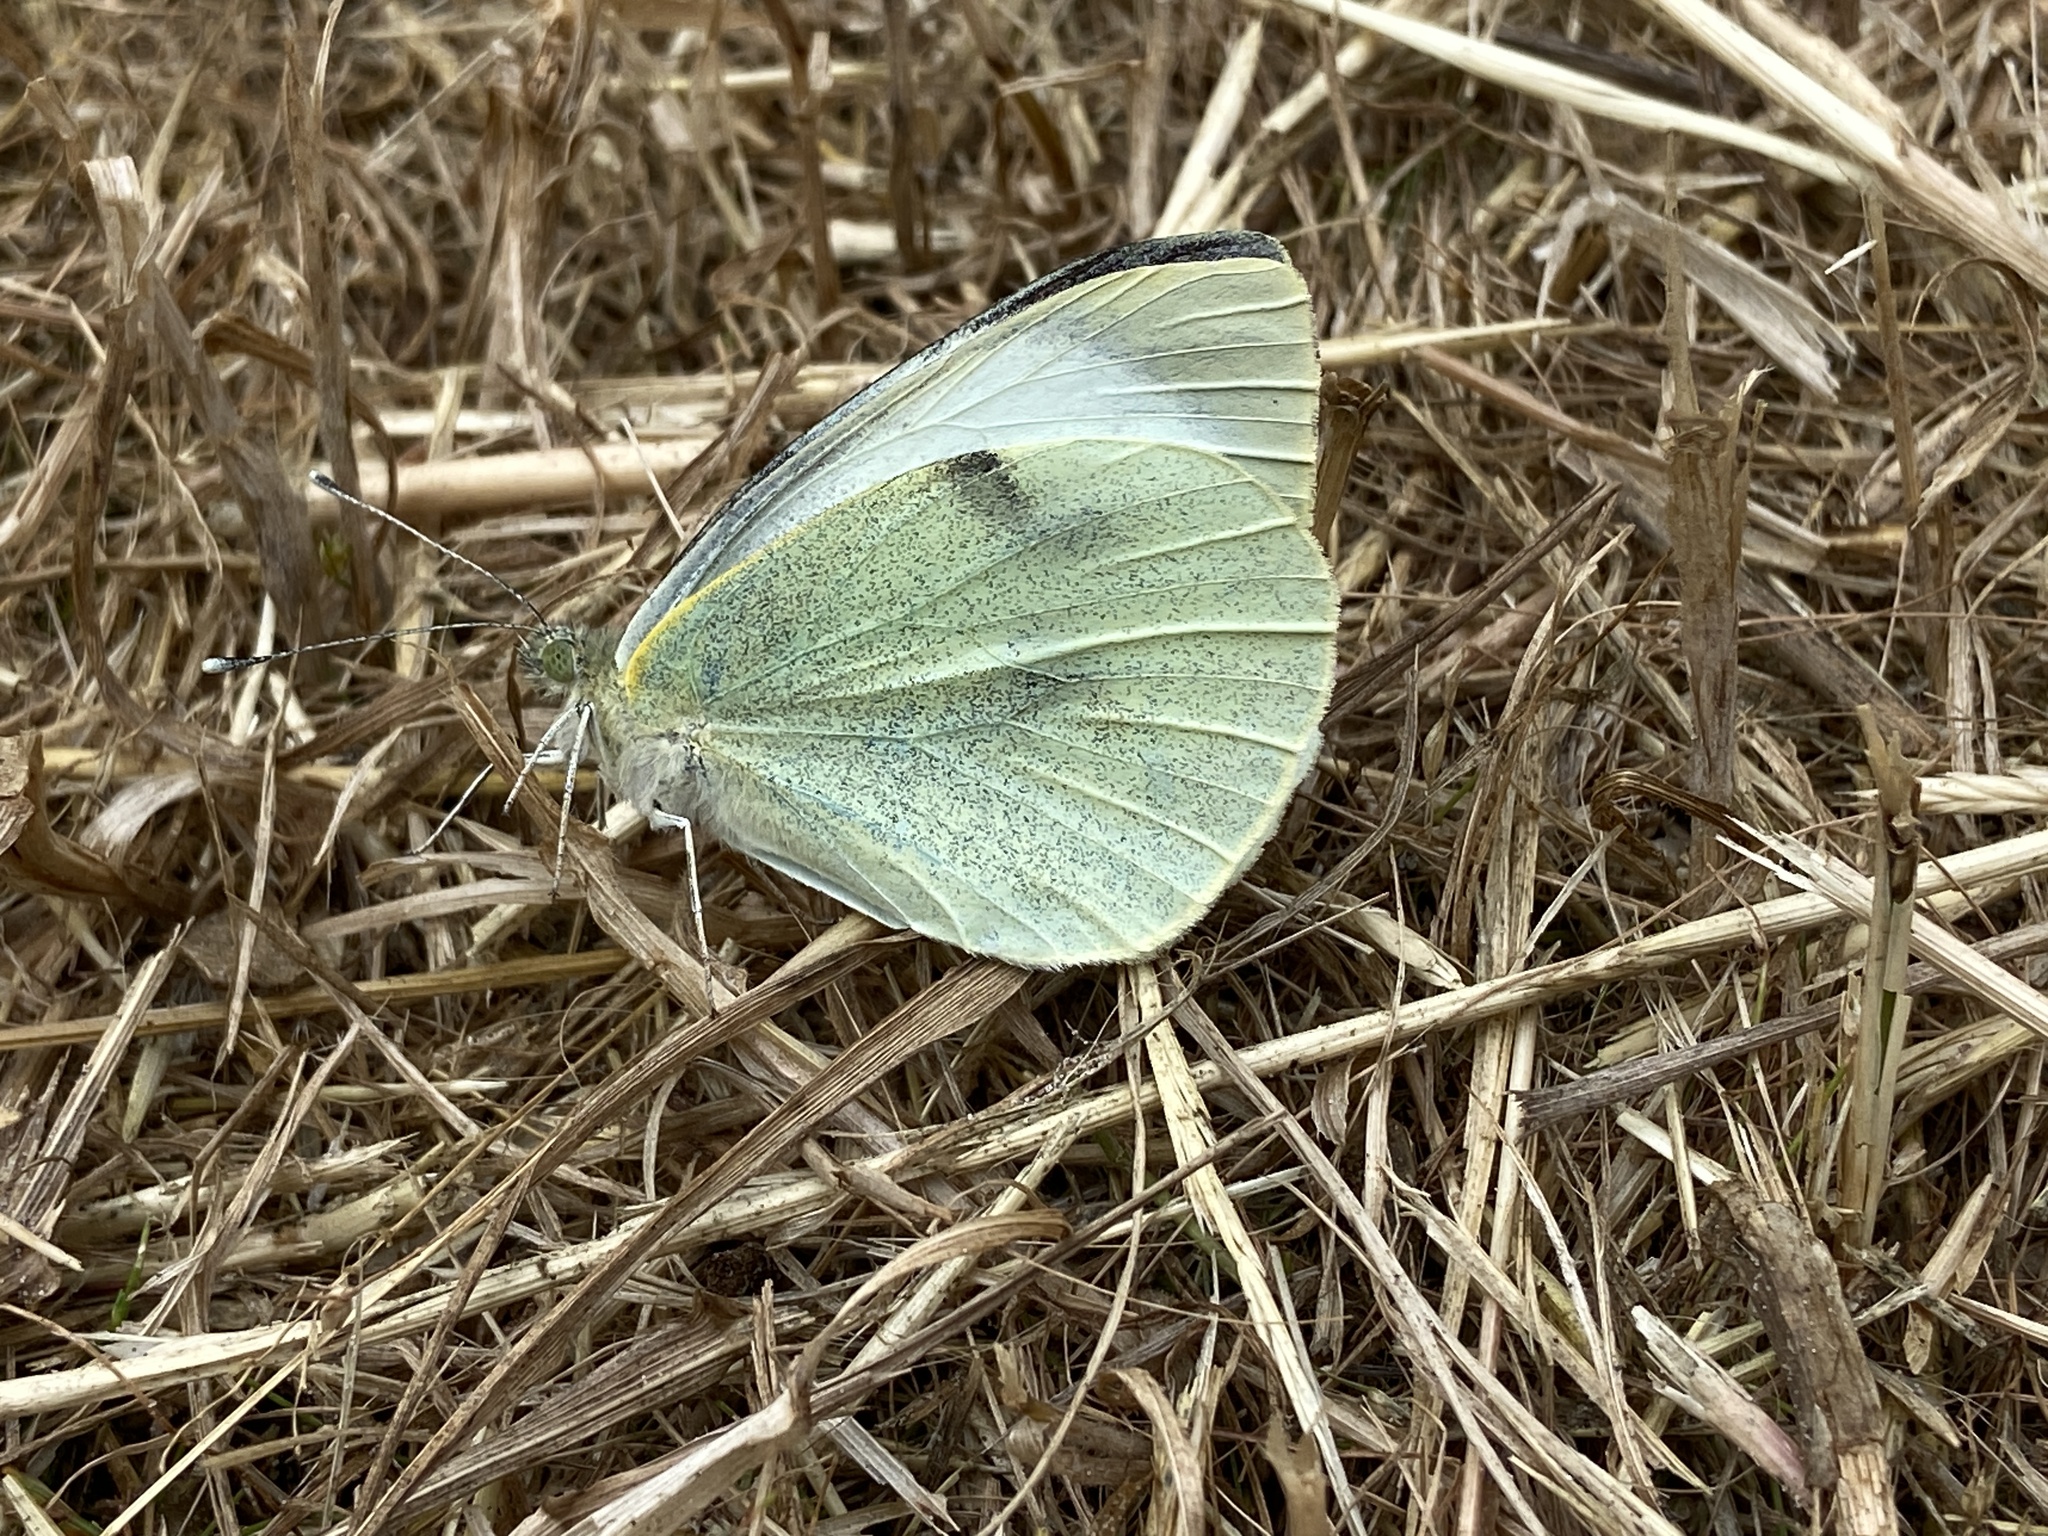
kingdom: Animalia
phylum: Arthropoda
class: Insecta
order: Lepidoptera
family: Pieridae
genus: Pieris
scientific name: Pieris brassicae
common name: Large white
